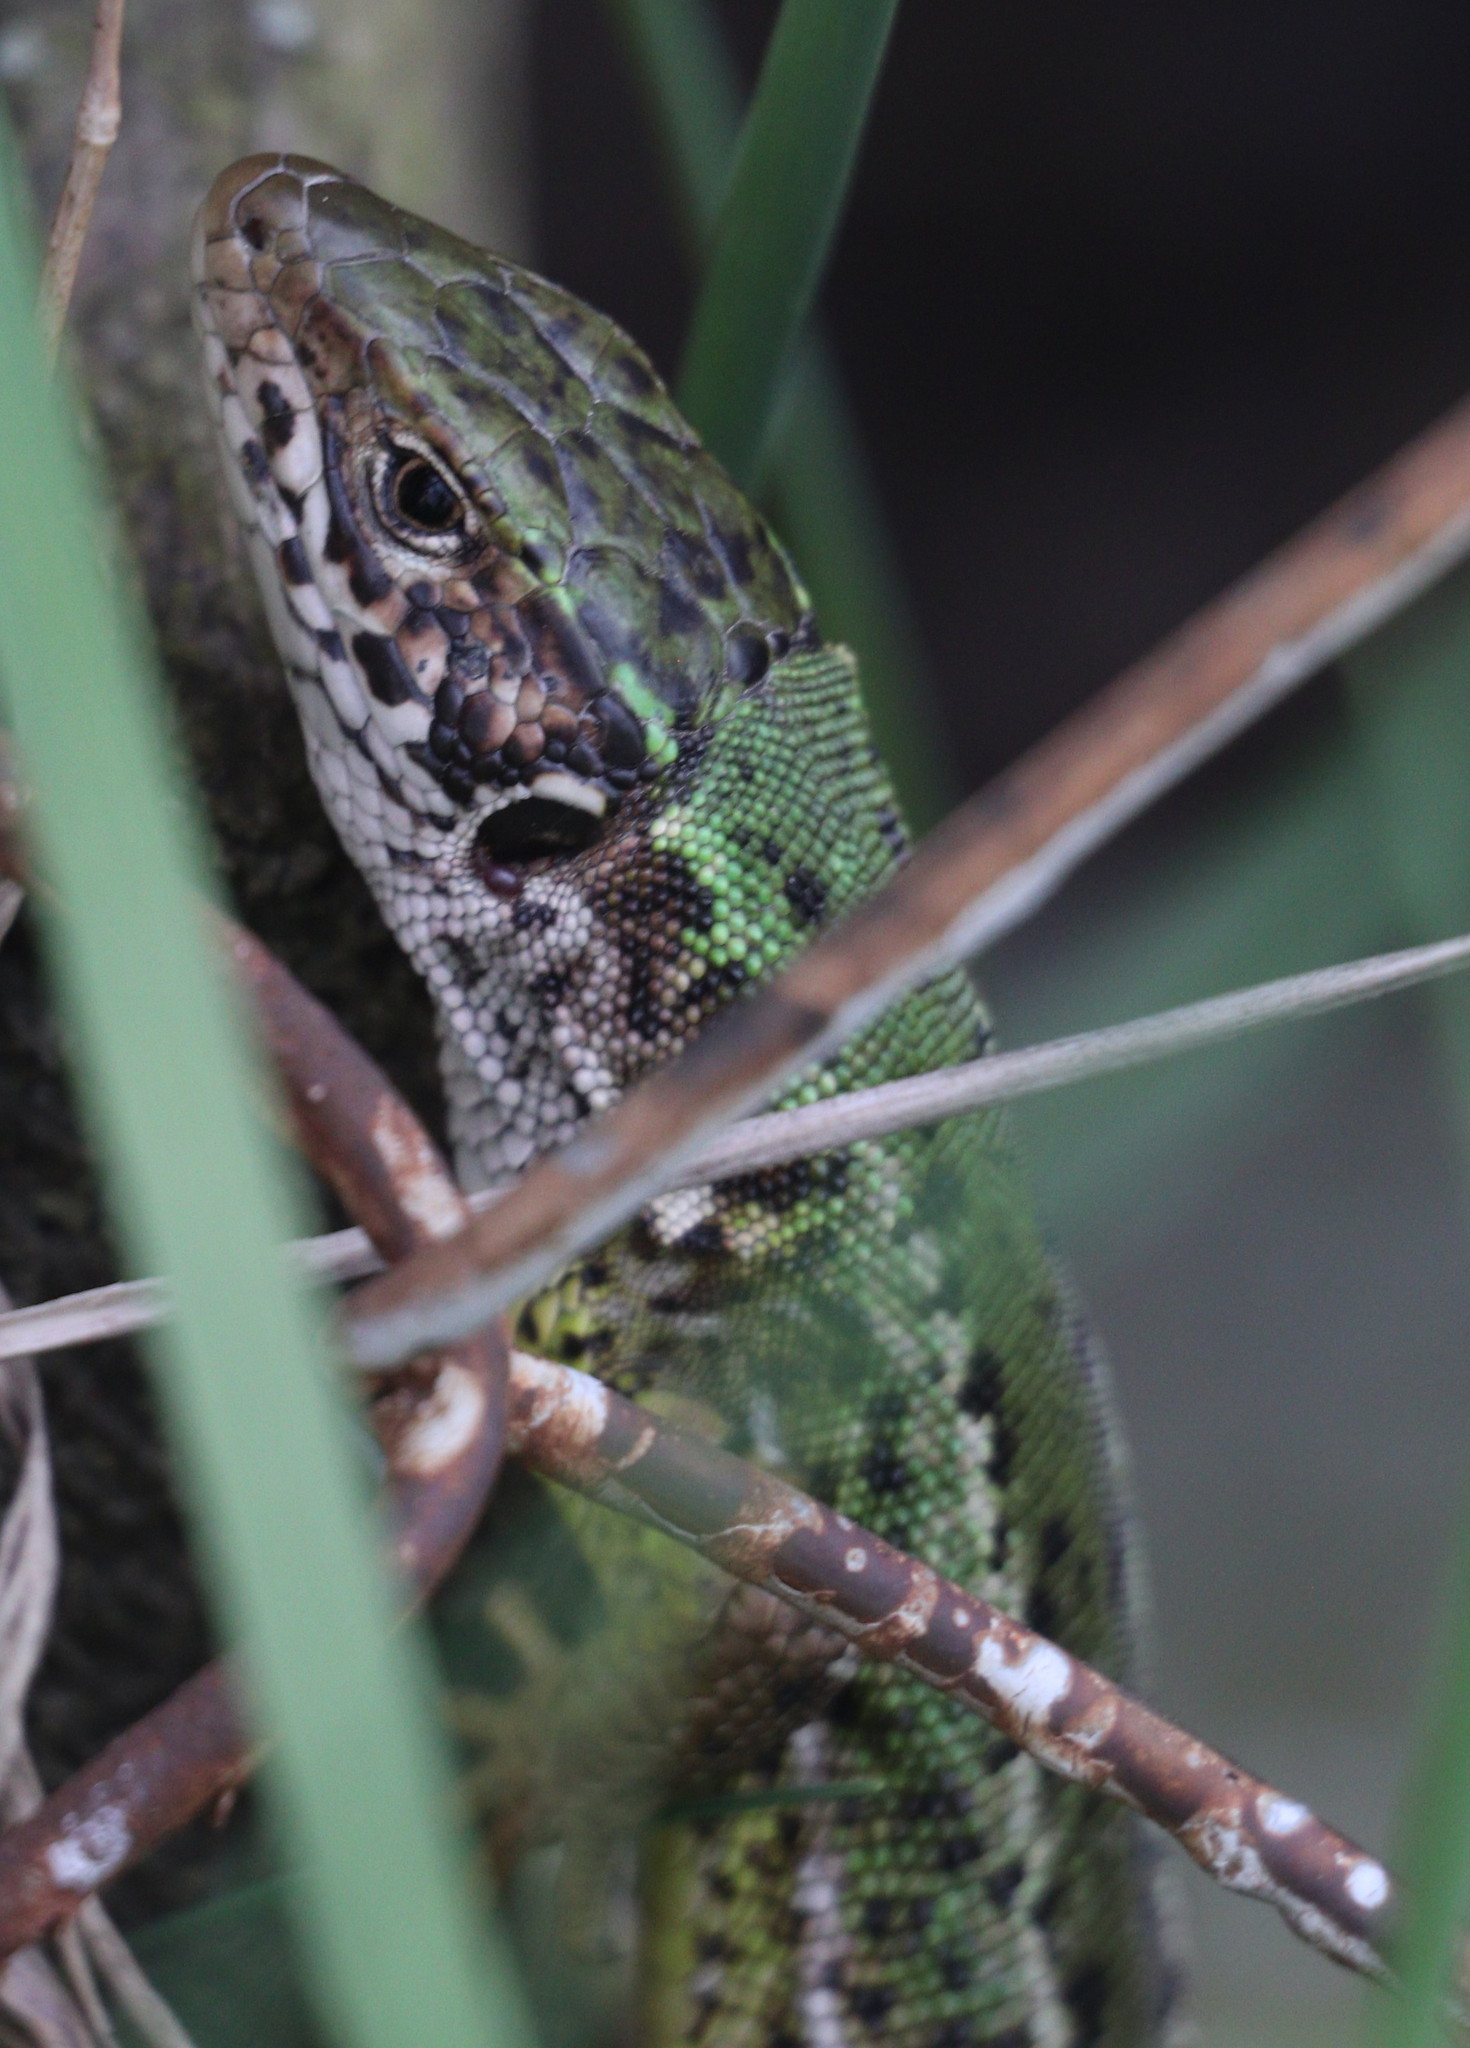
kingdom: Animalia
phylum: Chordata
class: Squamata
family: Lacertidae
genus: Lacerta
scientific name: Lacerta viridis
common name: European green lizard
